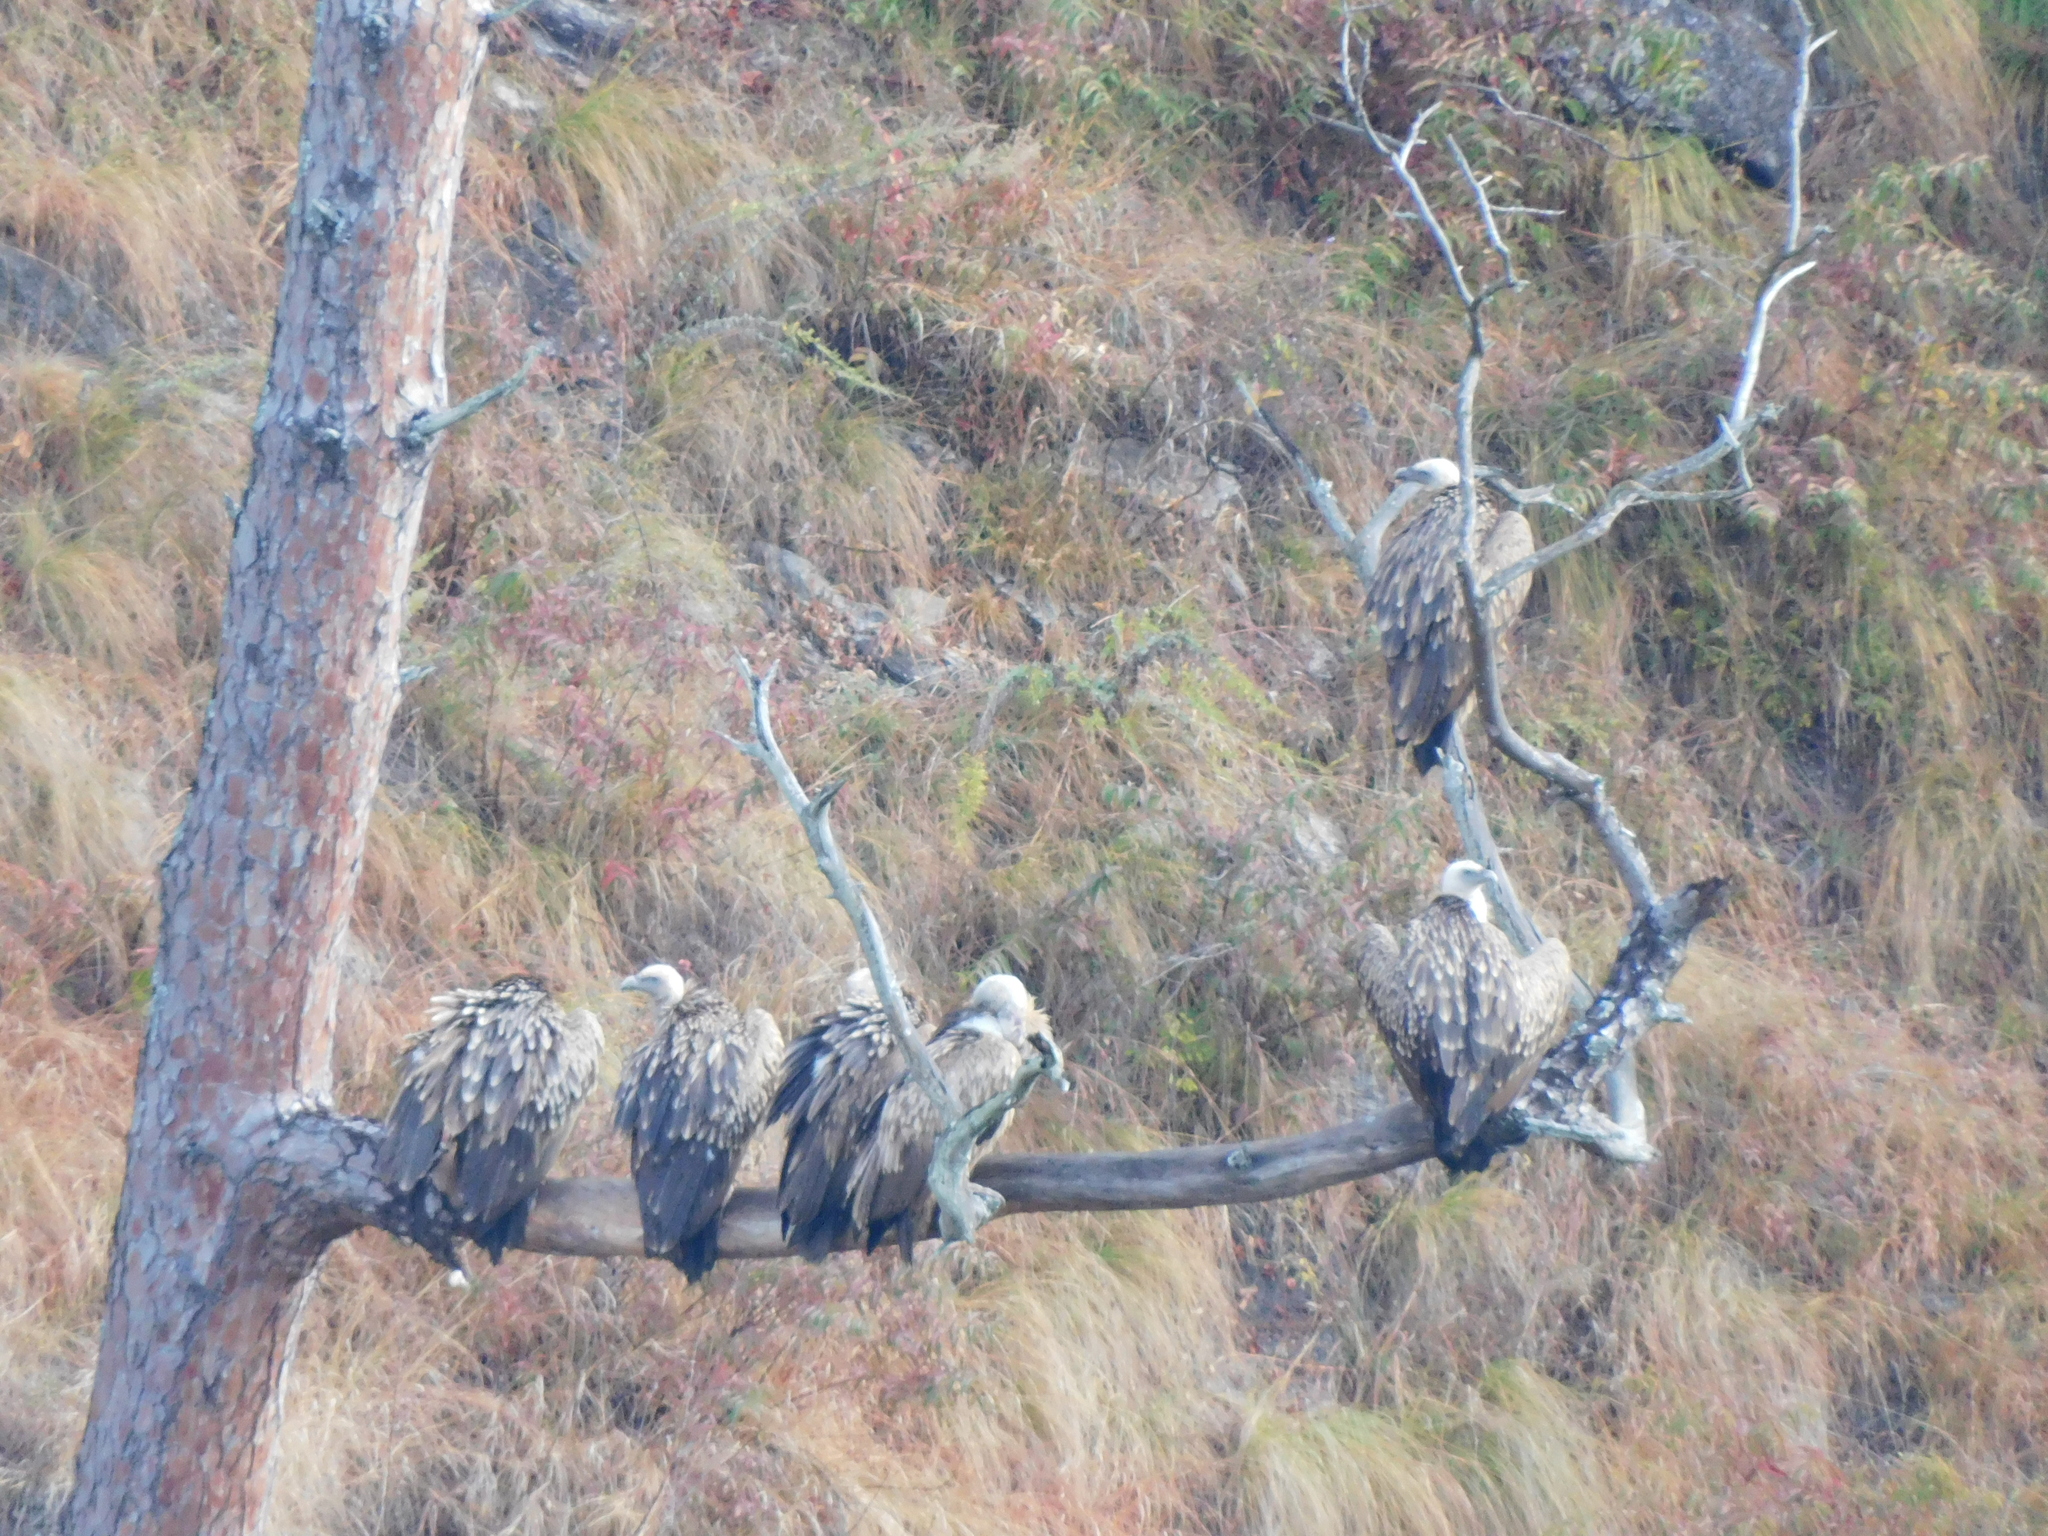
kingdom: Animalia
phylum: Chordata
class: Aves
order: Accipitriformes
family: Accipitridae
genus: Gyps
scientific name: Gyps himalayensis
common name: Himalayan griffon
